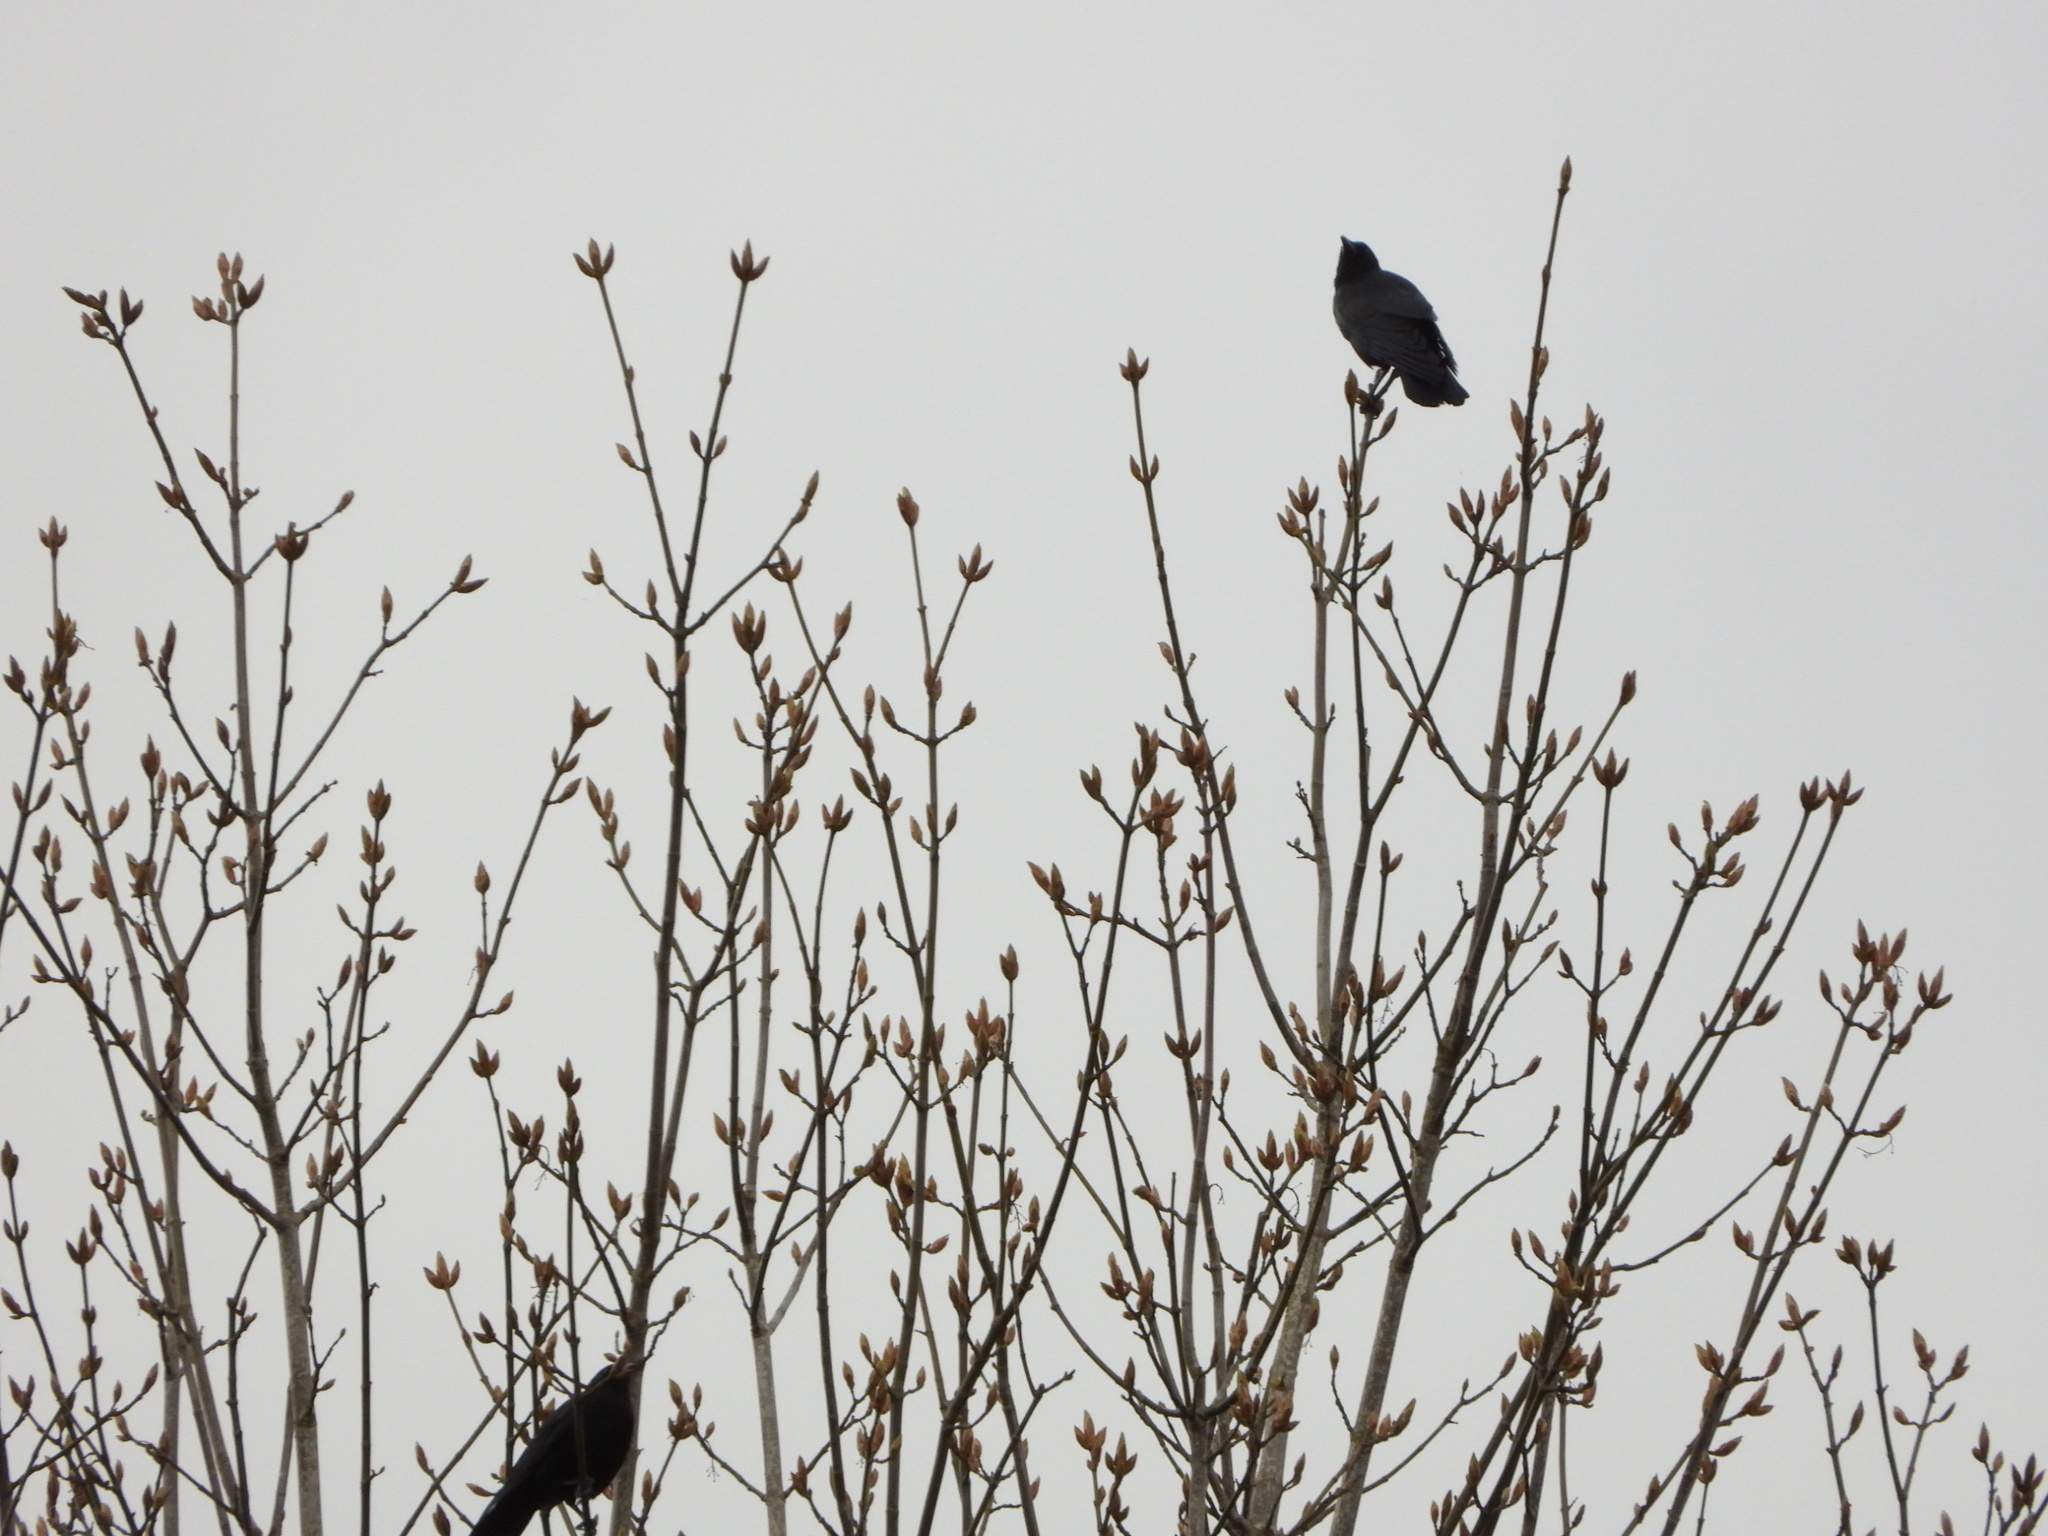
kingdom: Animalia
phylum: Chordata
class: Aves
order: Passeriformes
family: Corvidae
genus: Corvus
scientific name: Corvus brachyrhynchos
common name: American crow
